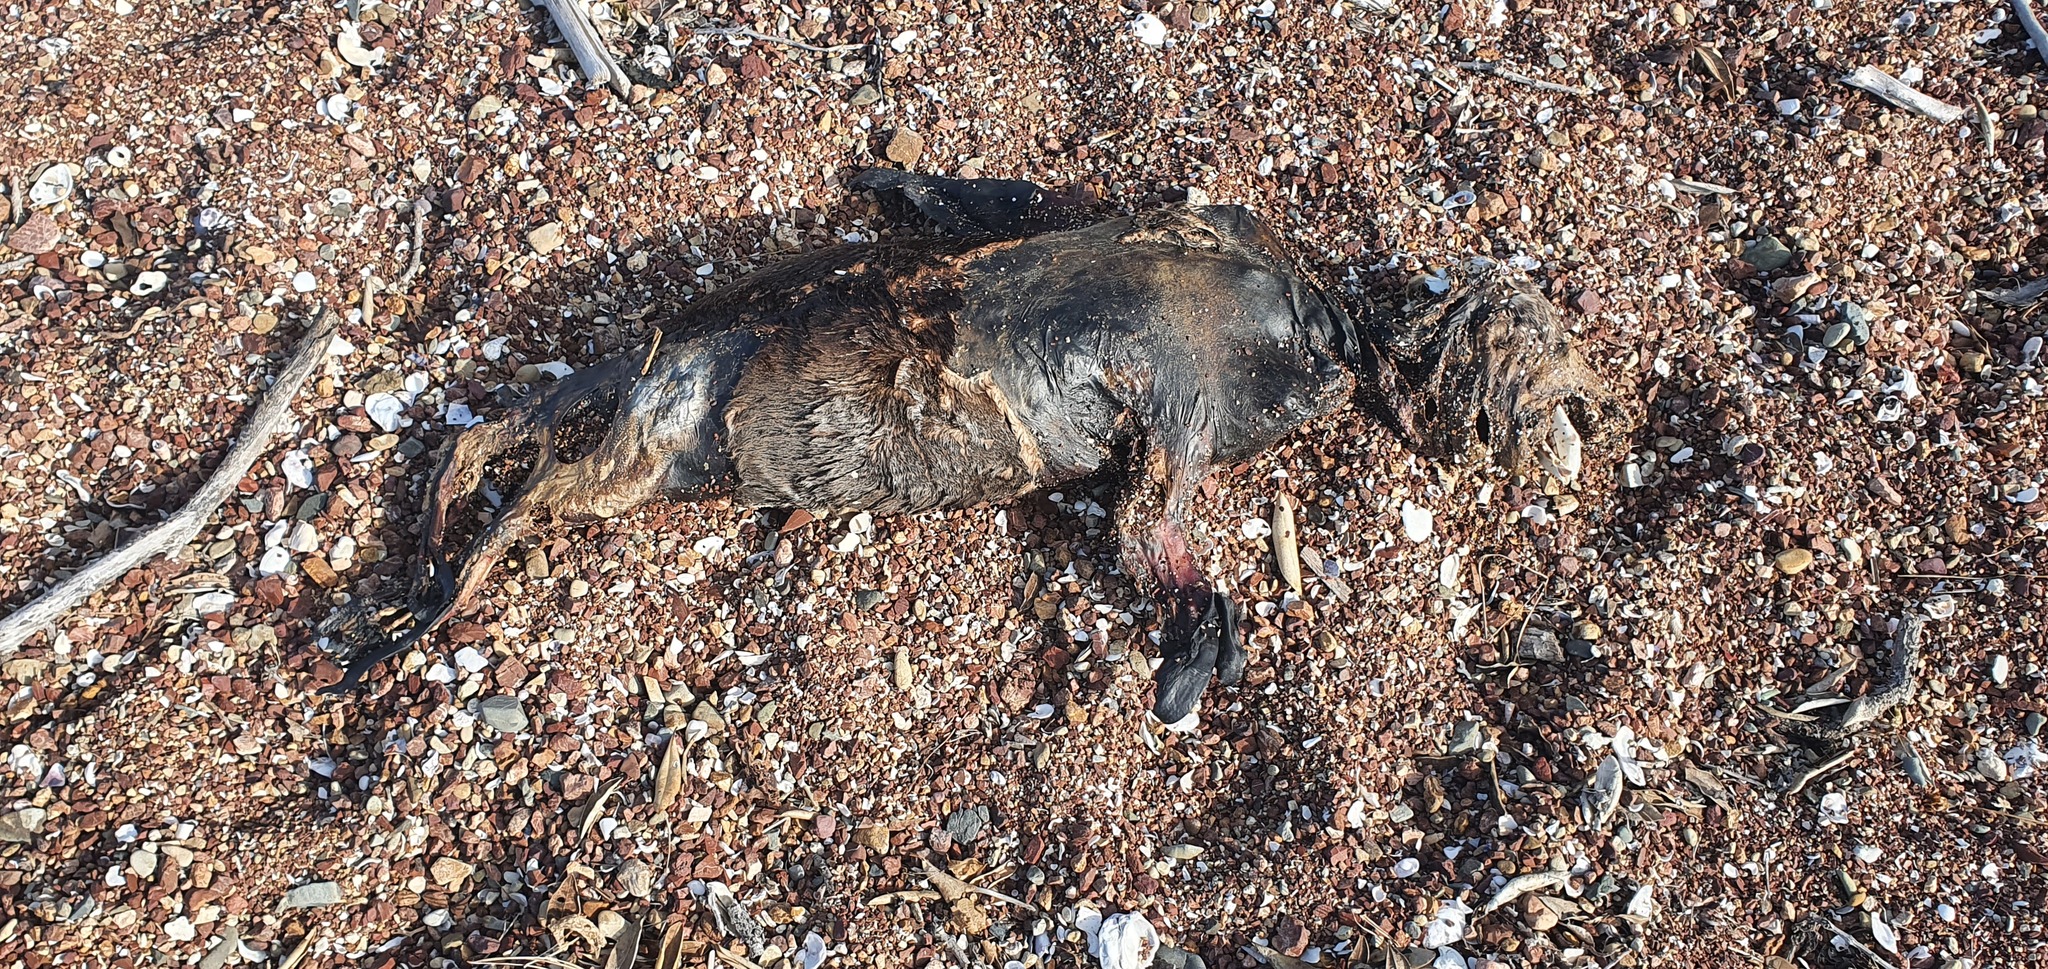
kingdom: Animalia
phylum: Chordata
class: Mammalia
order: Carnivora
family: Otariidae
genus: Arctocephalus
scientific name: Arctocephalus forsteri
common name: New zealand fur seal
